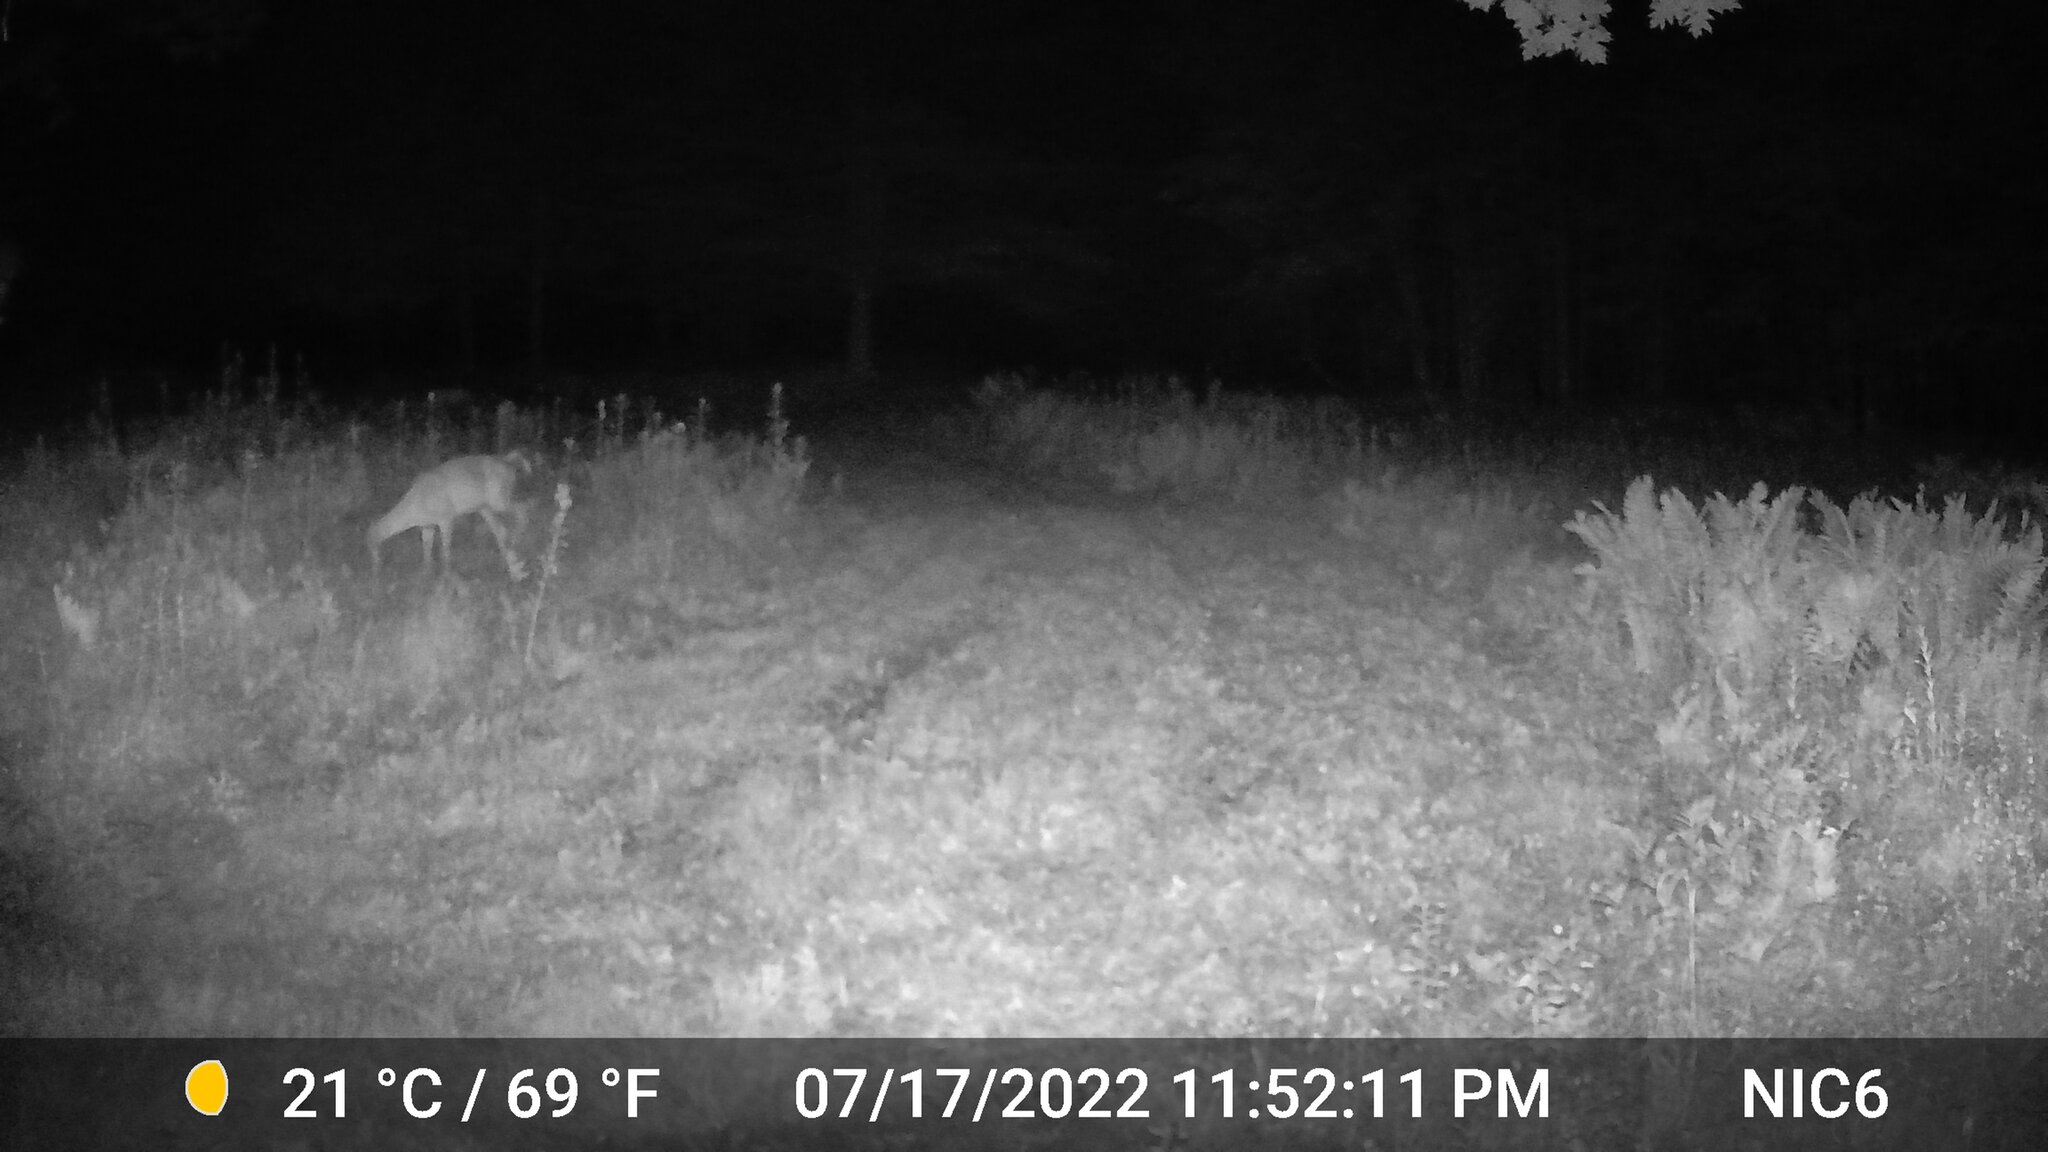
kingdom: Animalia
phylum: Chordata
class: Mammalia
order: Artiodactyla
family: Cervidae
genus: Odocoileus
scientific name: Odocoileus virginianus
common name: White-tailed deer
